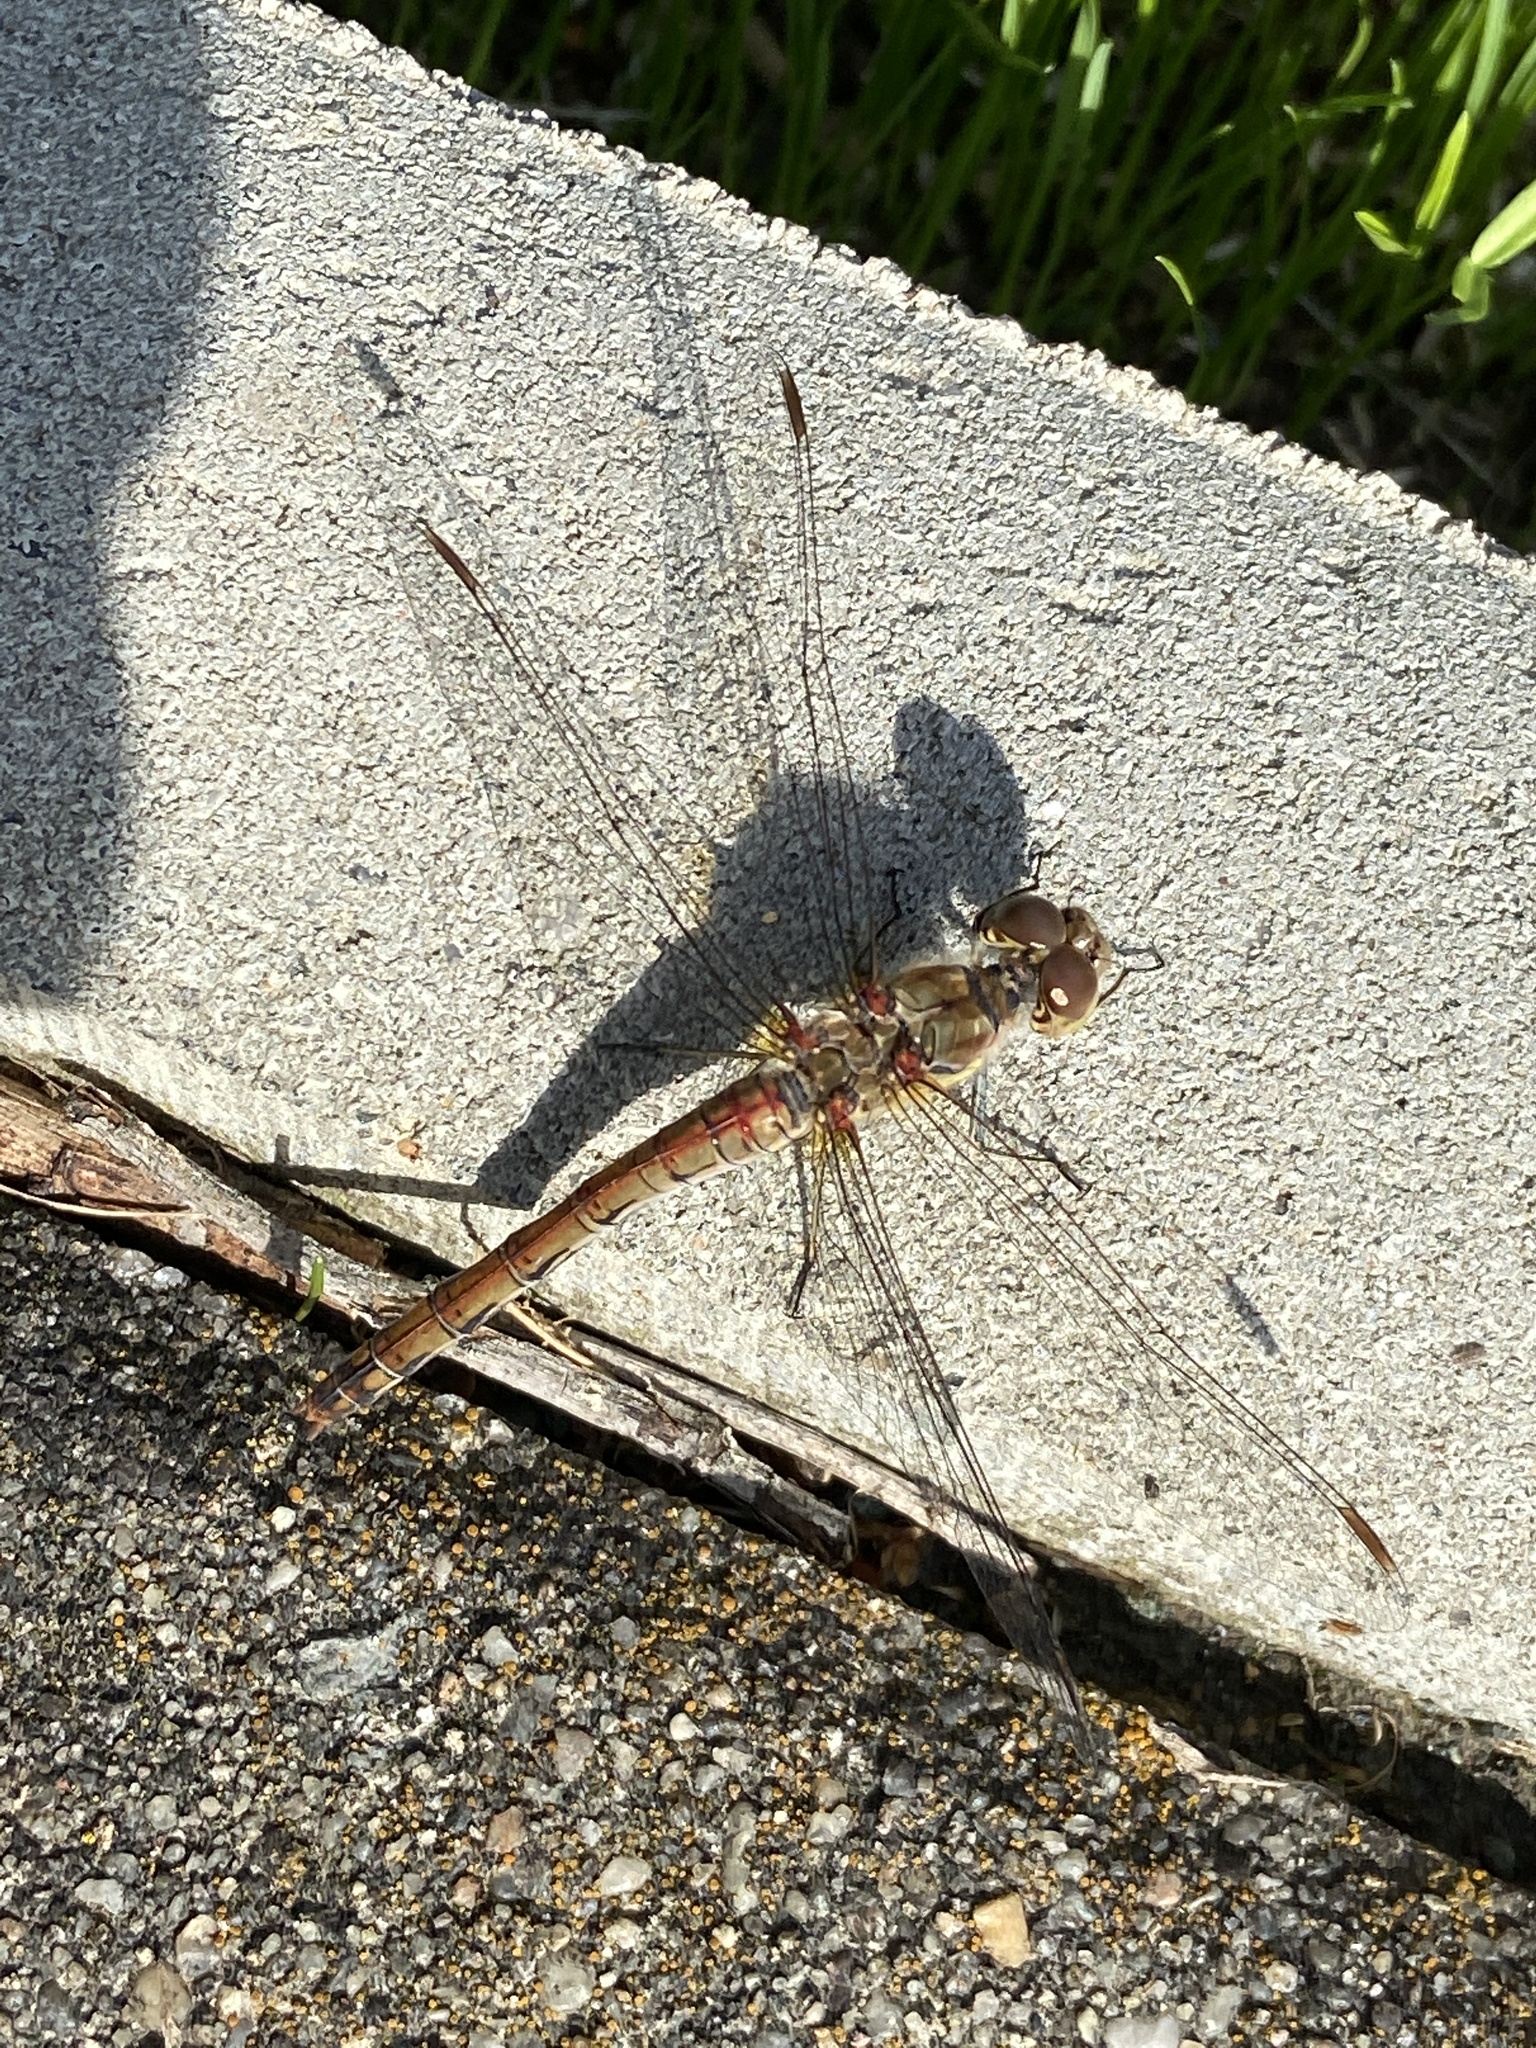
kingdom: Animalia
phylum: Arthropoda
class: Insecta
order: Odonata
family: Libellulidae
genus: Sympetrum
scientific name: Sympetrum striolatum
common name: Common darter
